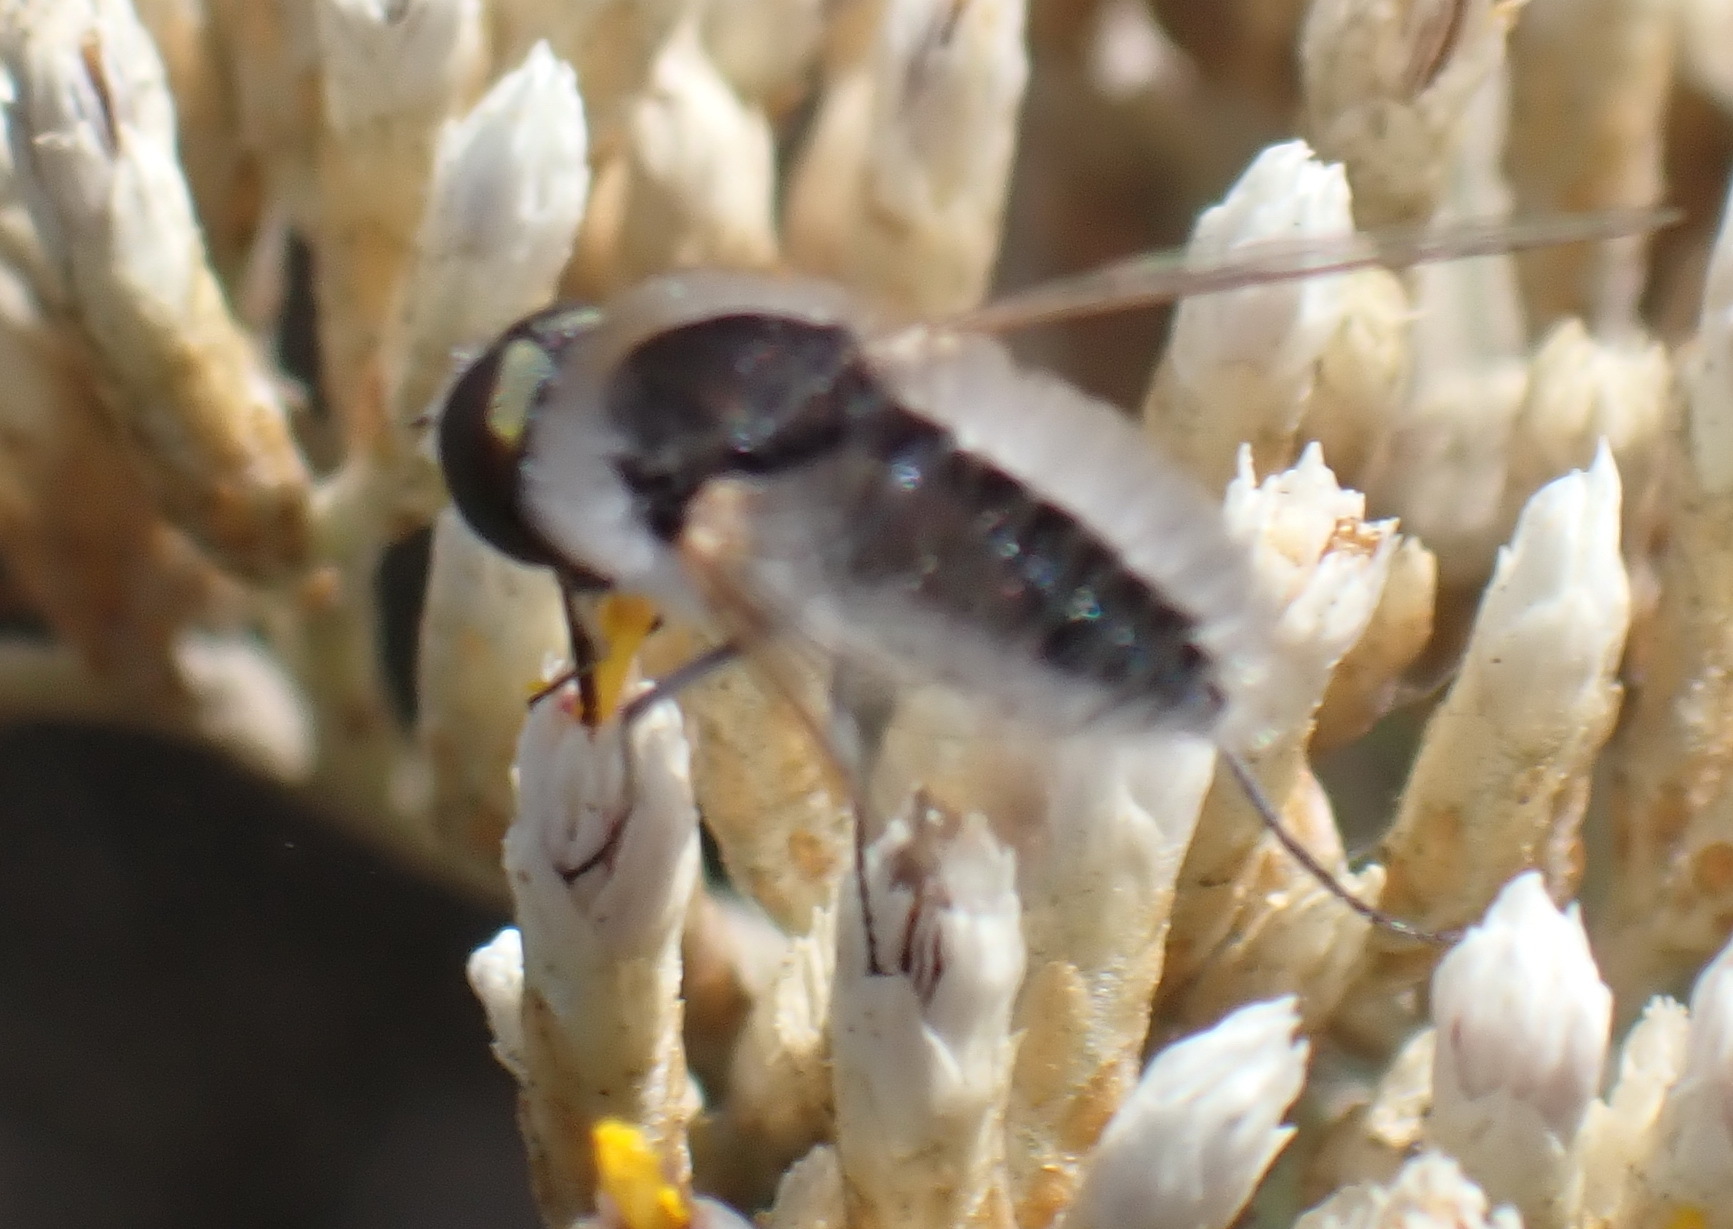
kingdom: Animalia
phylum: Arthropoda
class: Insecta
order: Diptera
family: Bombyliidae
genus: Bombylisoma
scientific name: Bombylisoma senegalense
